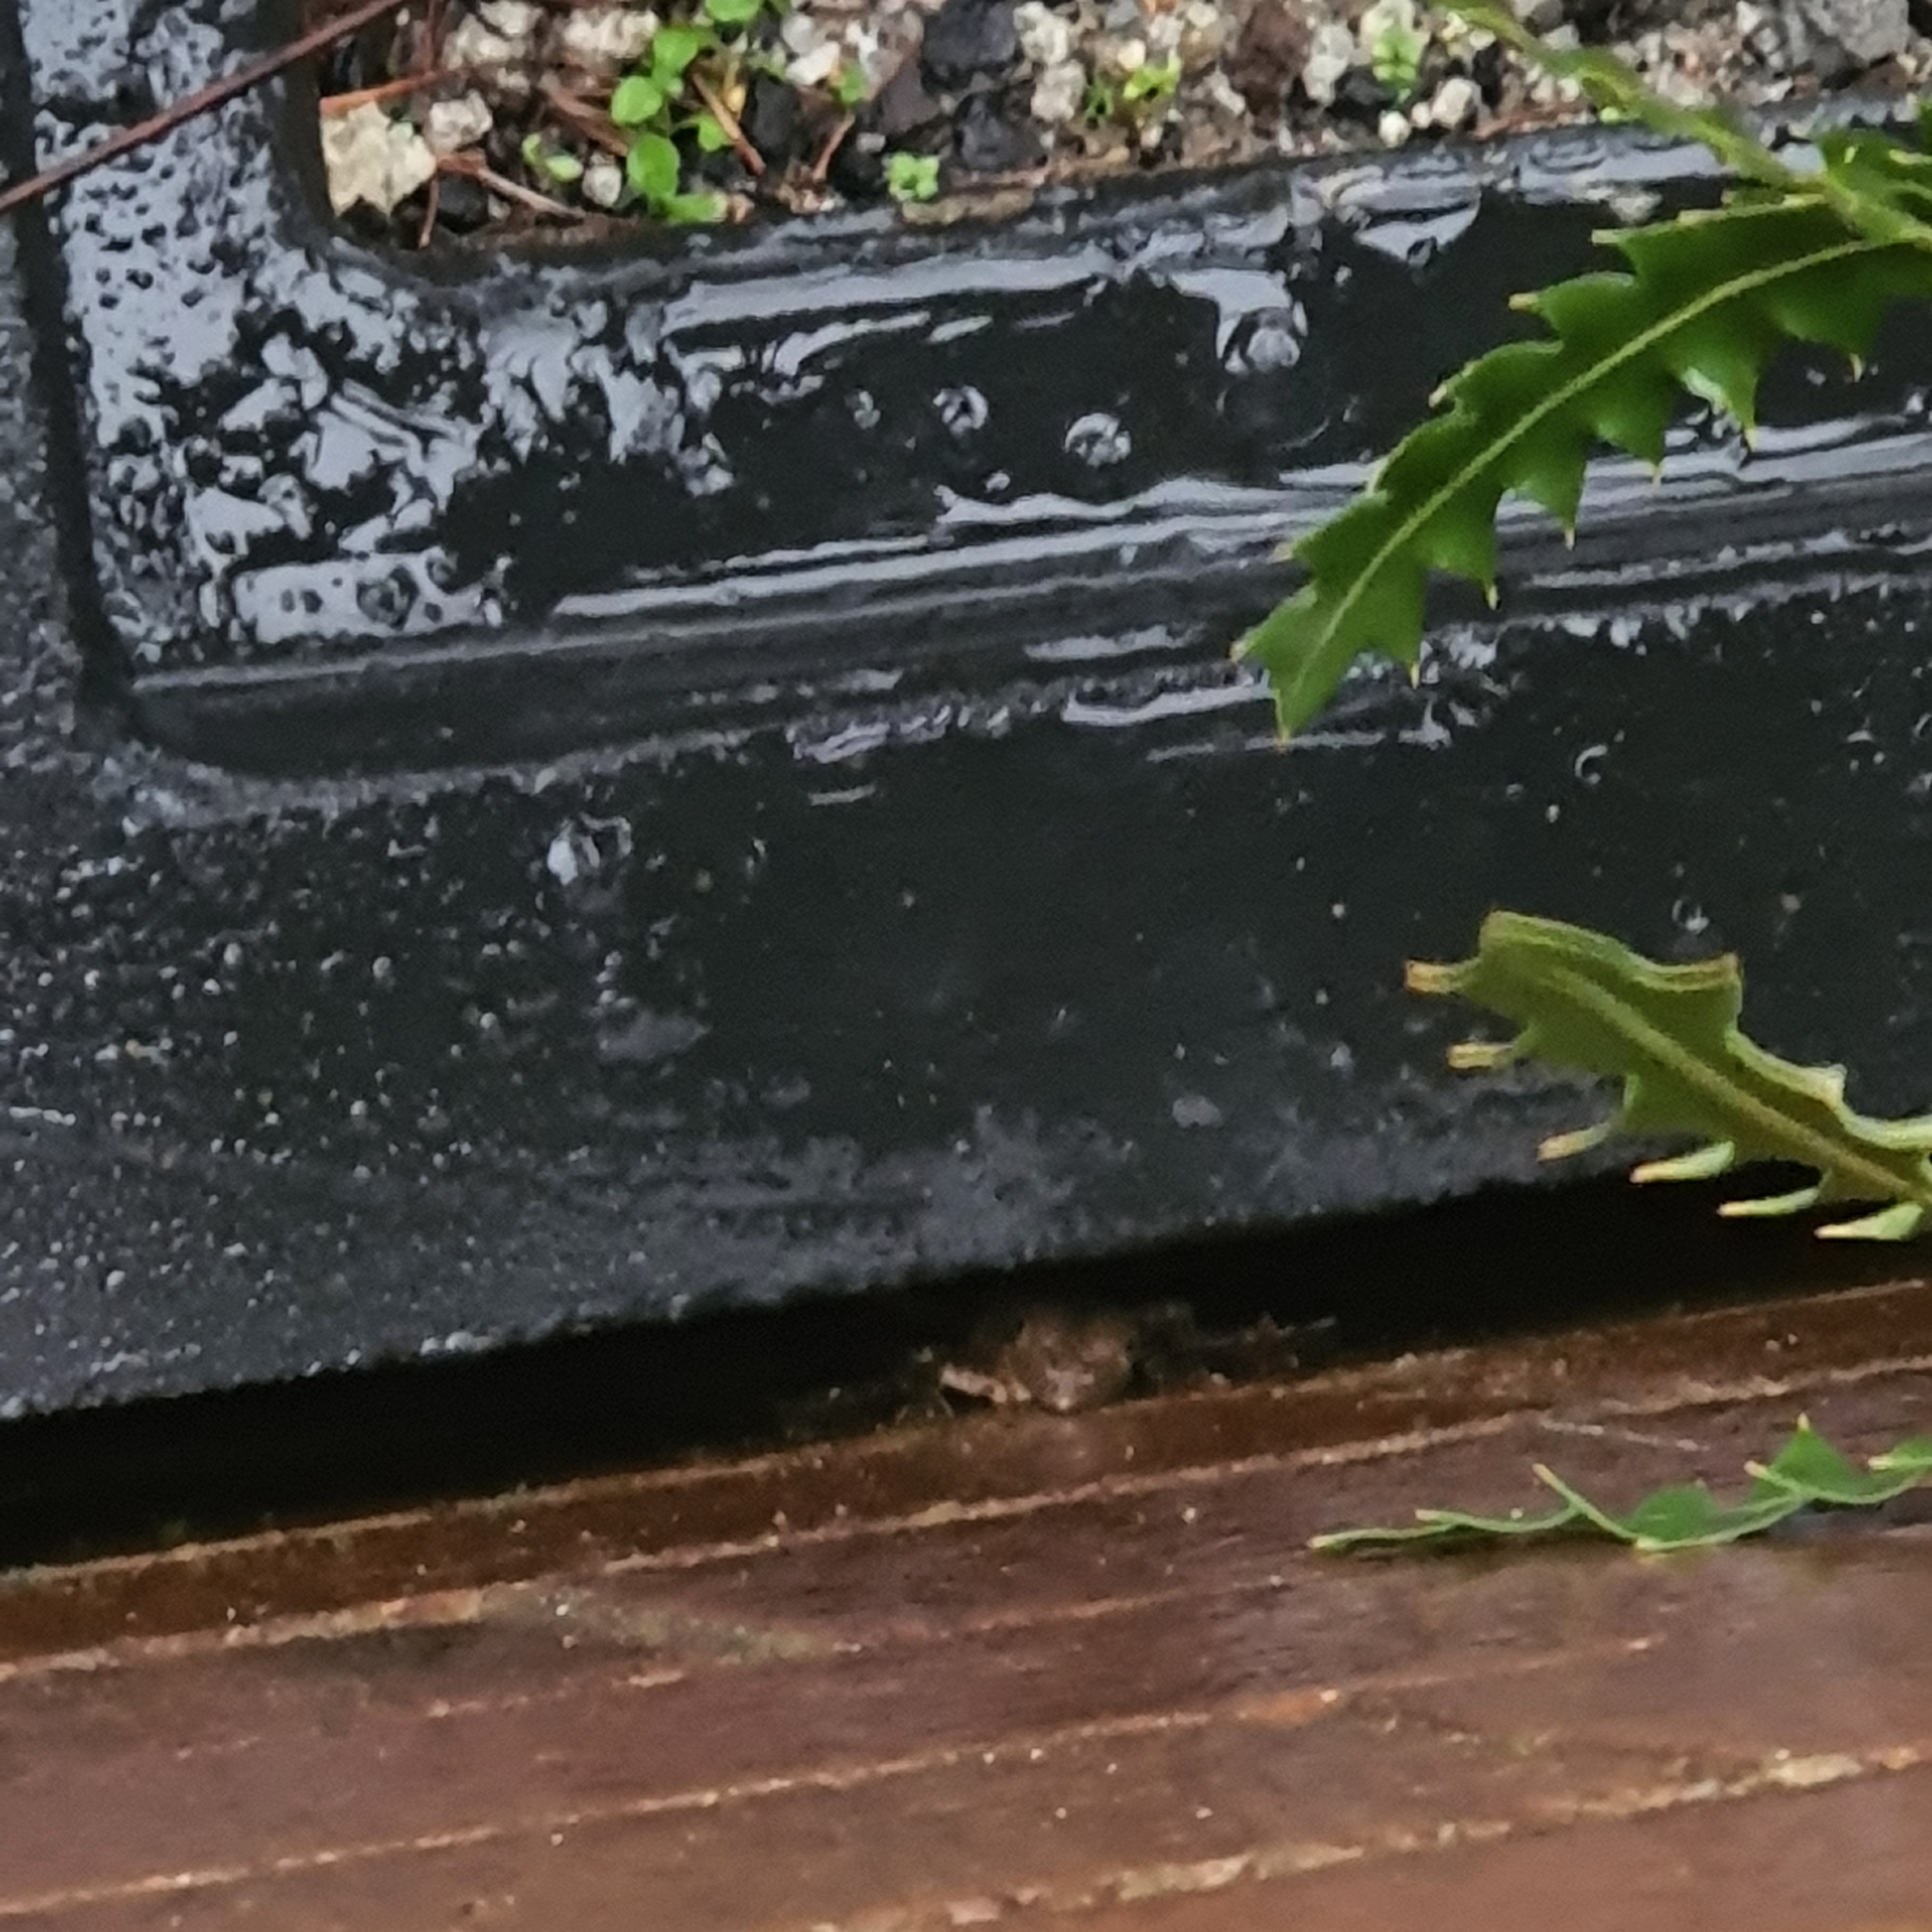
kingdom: Animalia
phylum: Chordata
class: Squamata
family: Agamidae
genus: Intellagama
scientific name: Intellagama lesueurii
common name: Eastern water dragon
